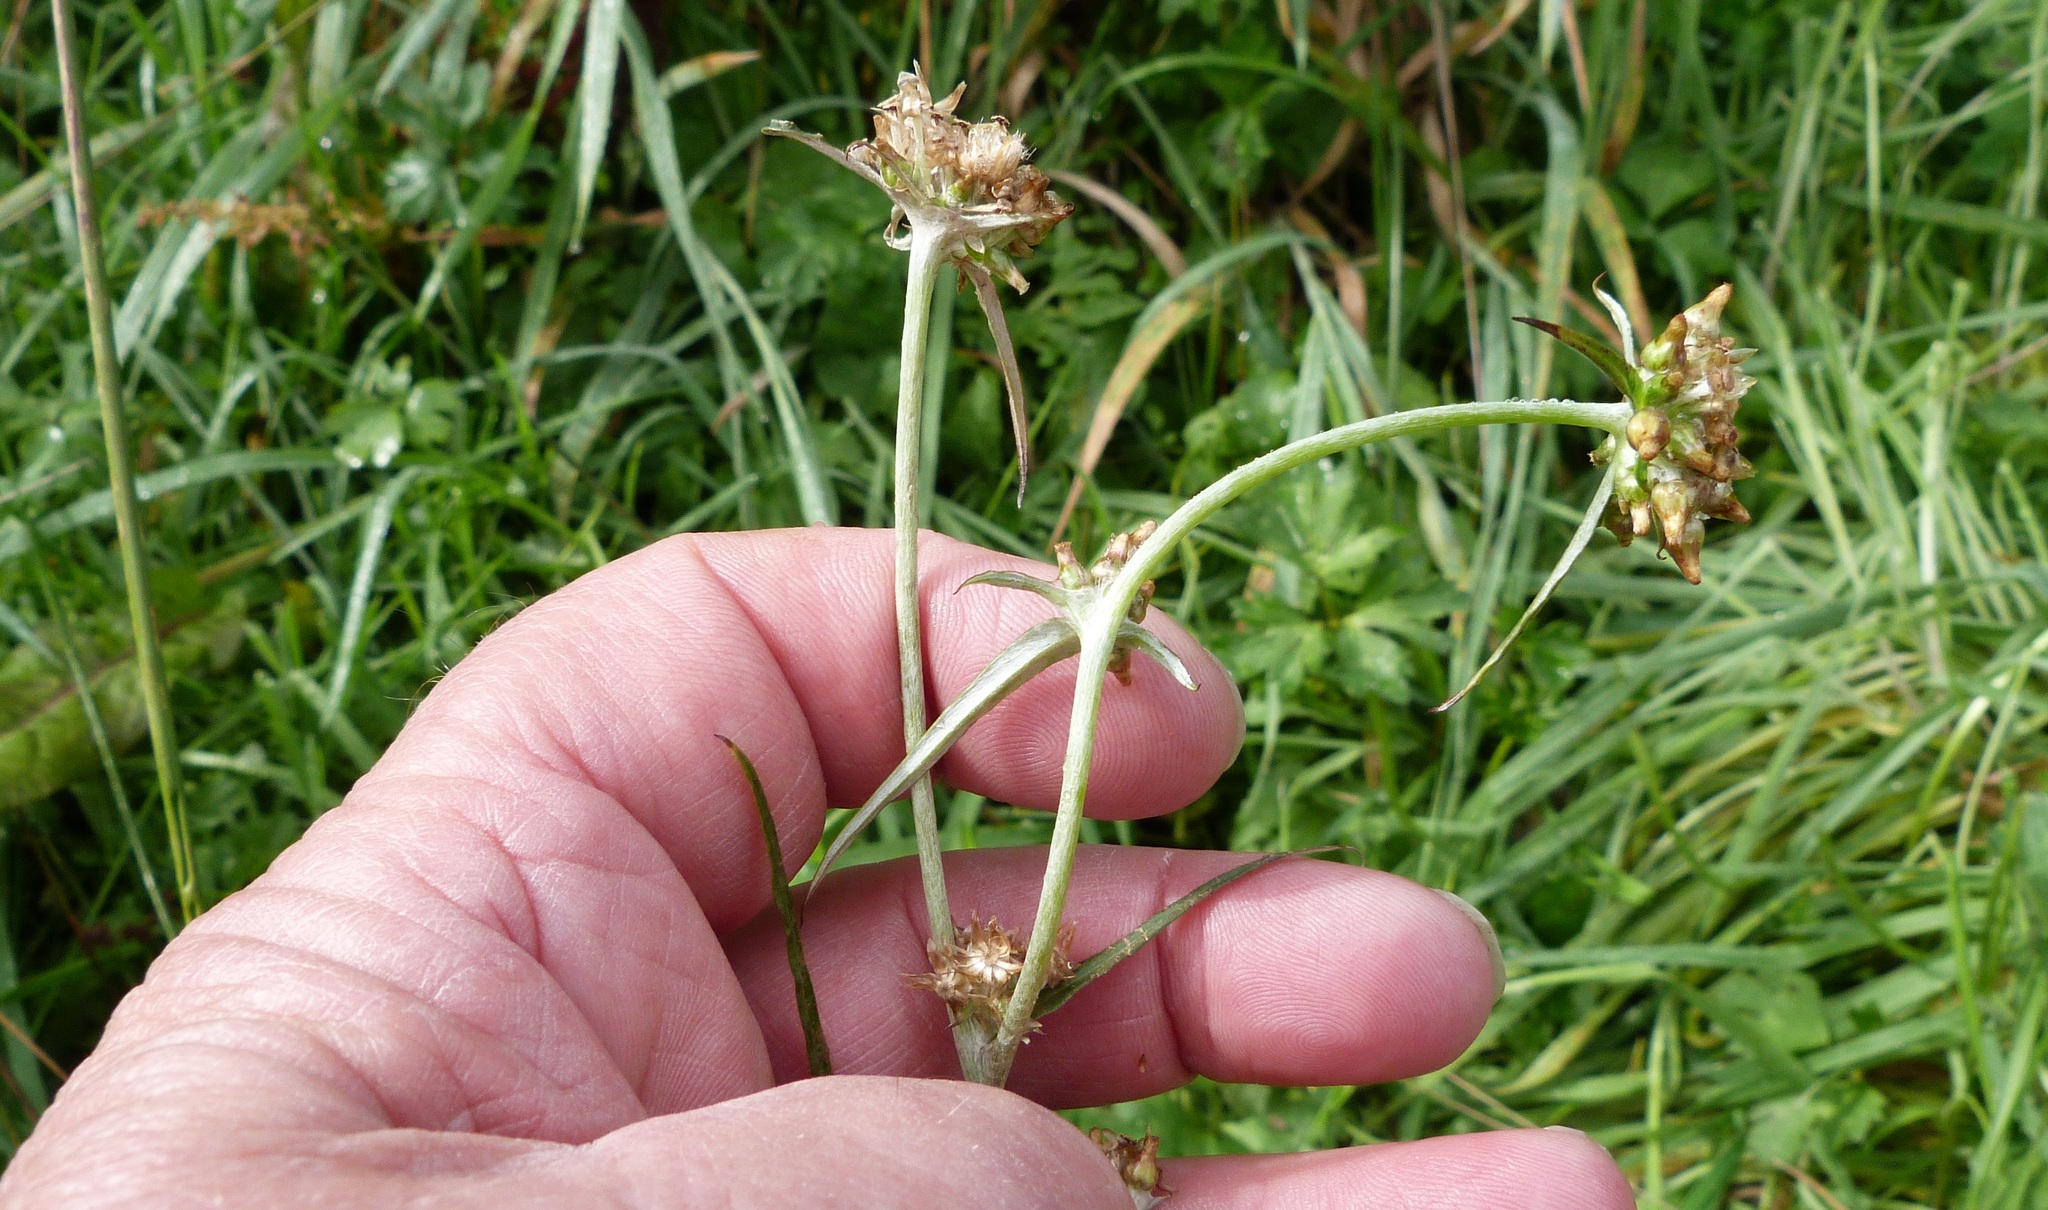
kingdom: Plantae
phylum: Tracheophyta
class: Magnoliopsida
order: Asterales
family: Asteraceae
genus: Euchiton
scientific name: Euchiton involucratus
